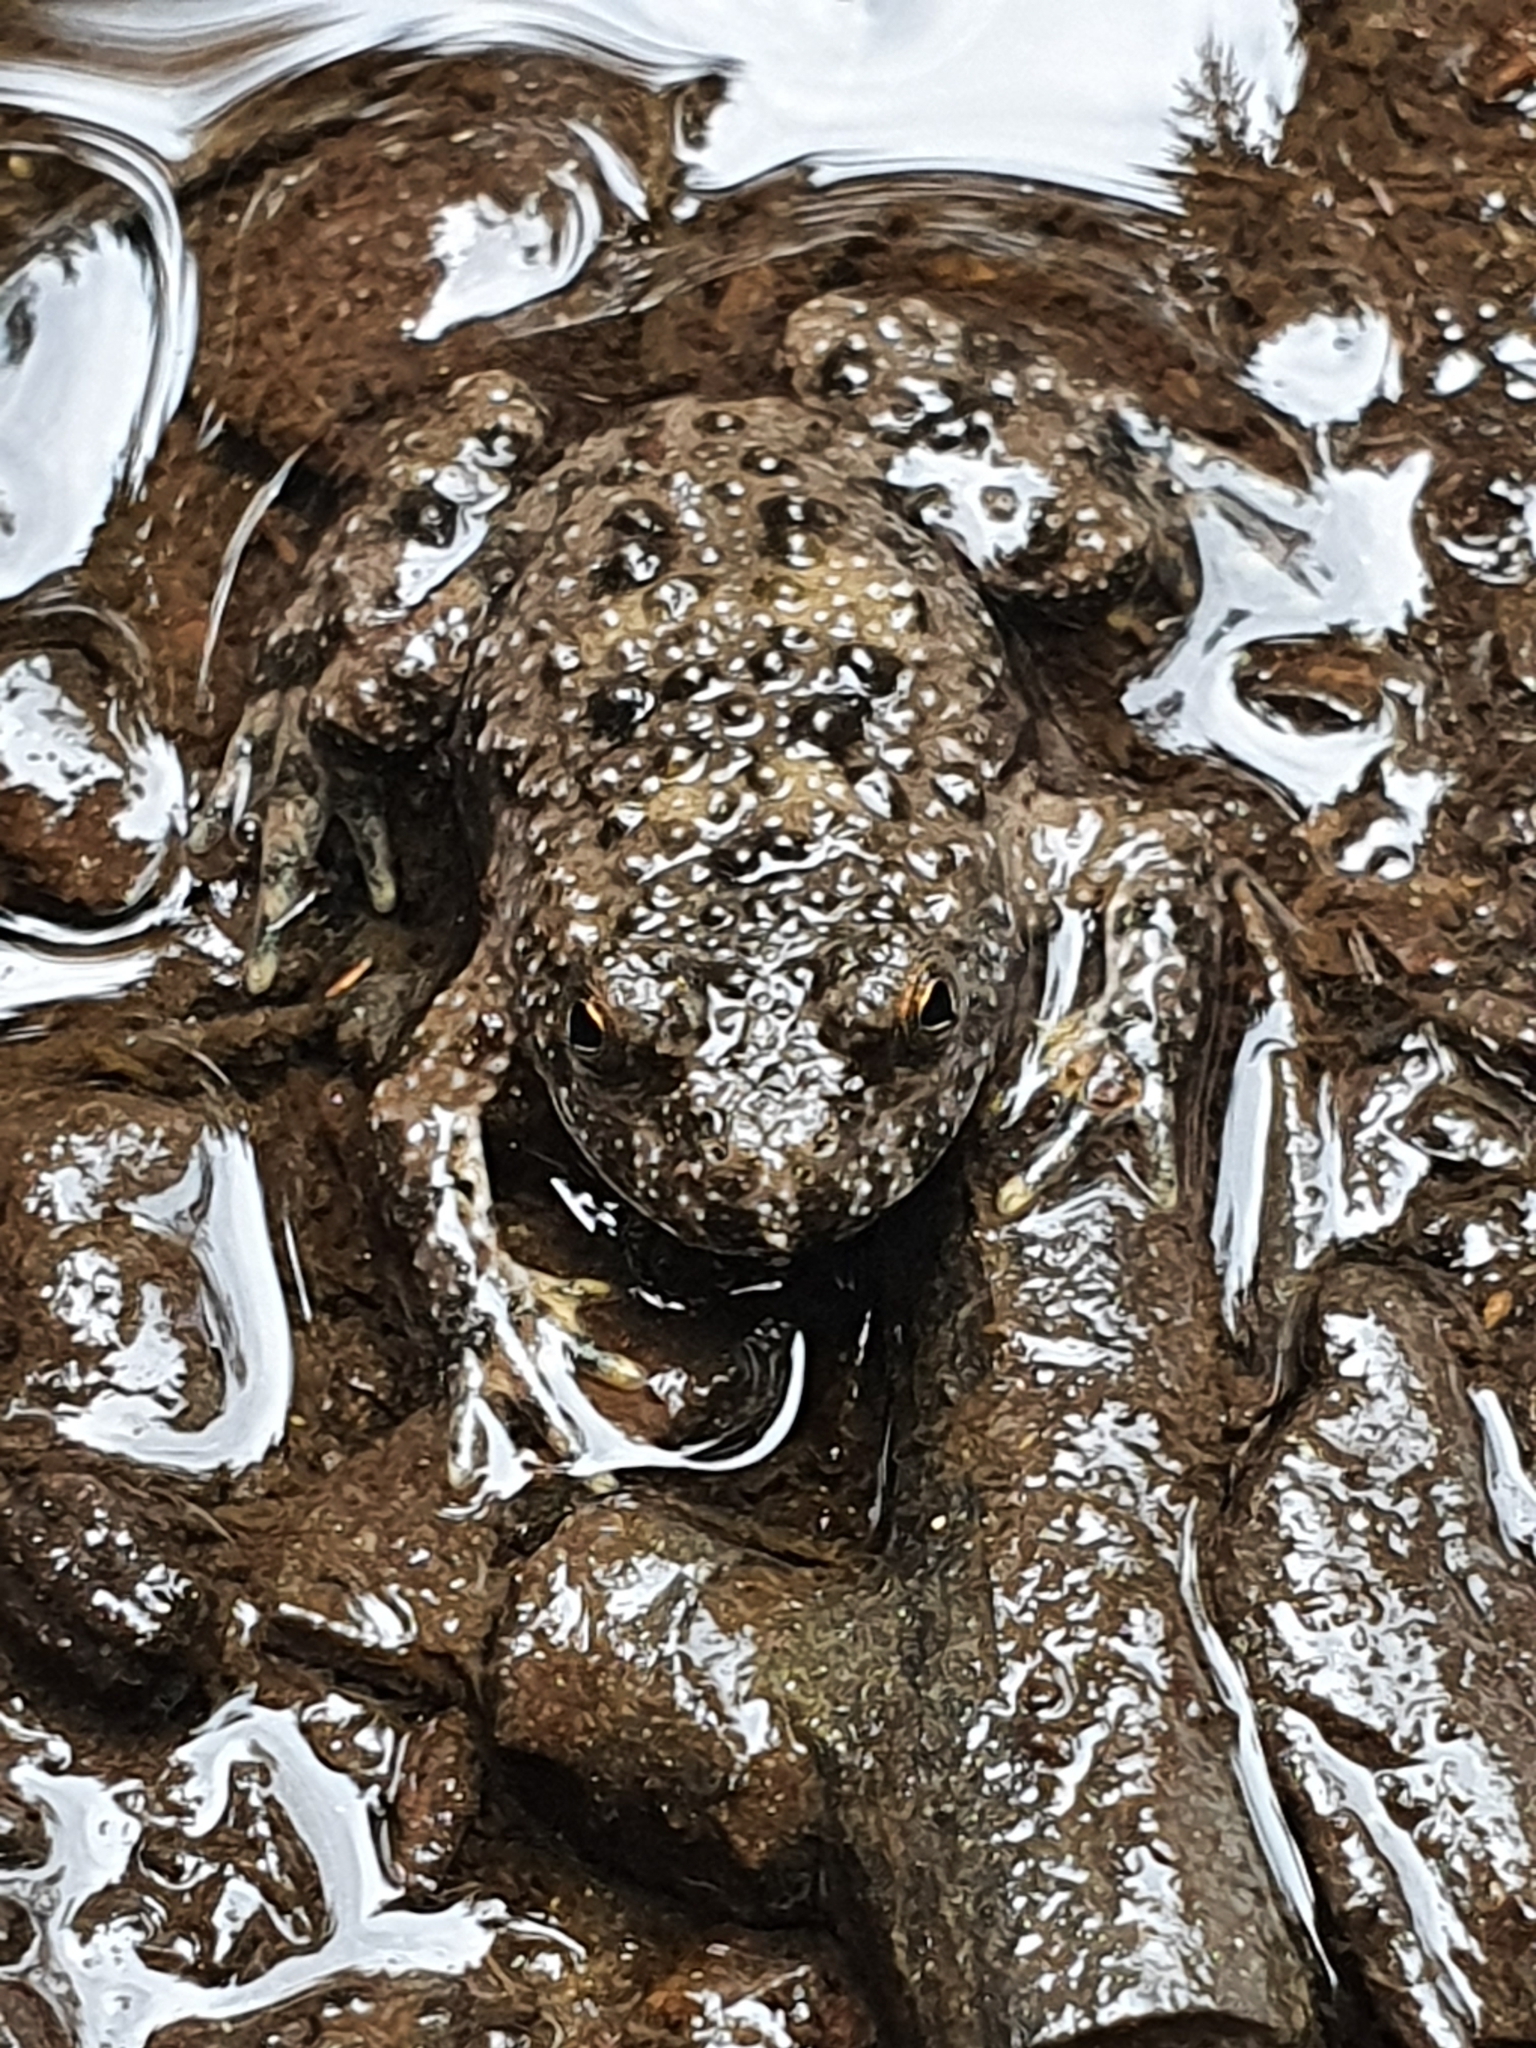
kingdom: Animalia
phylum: Chordata
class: Amphibia
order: Anura
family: Bombinatoridae
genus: Bombina
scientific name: Bombina variegata
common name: Yellow-bellied toad
